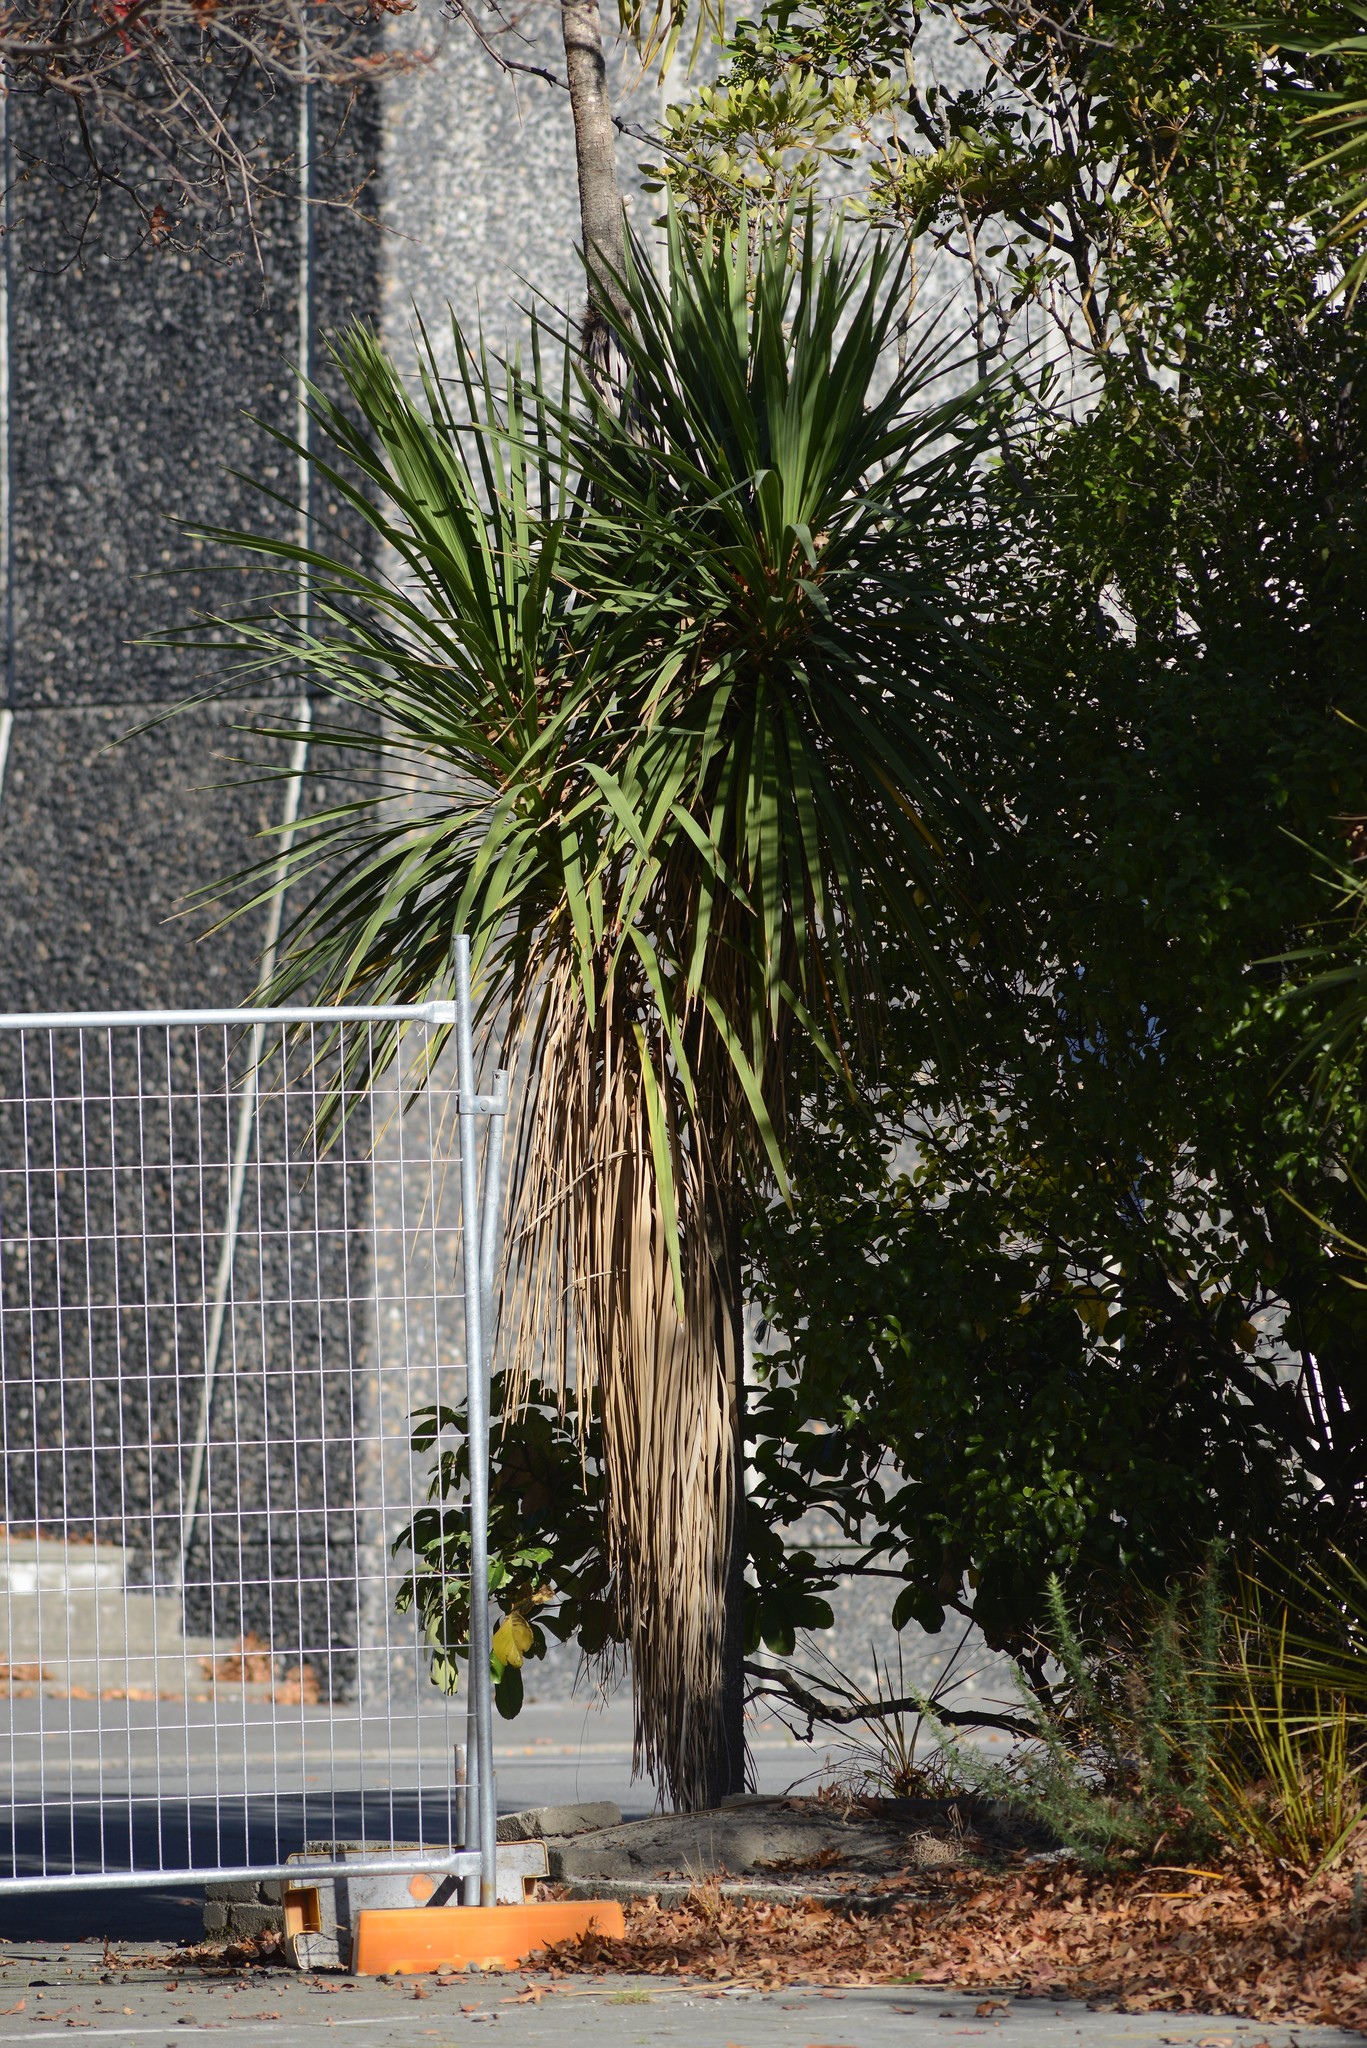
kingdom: Plantae
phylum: Tracheophyta
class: Liliopsida
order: Asparagales
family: Asparagaceae
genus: Cordyline
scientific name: Cordyline australis
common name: Cabbage-palm
